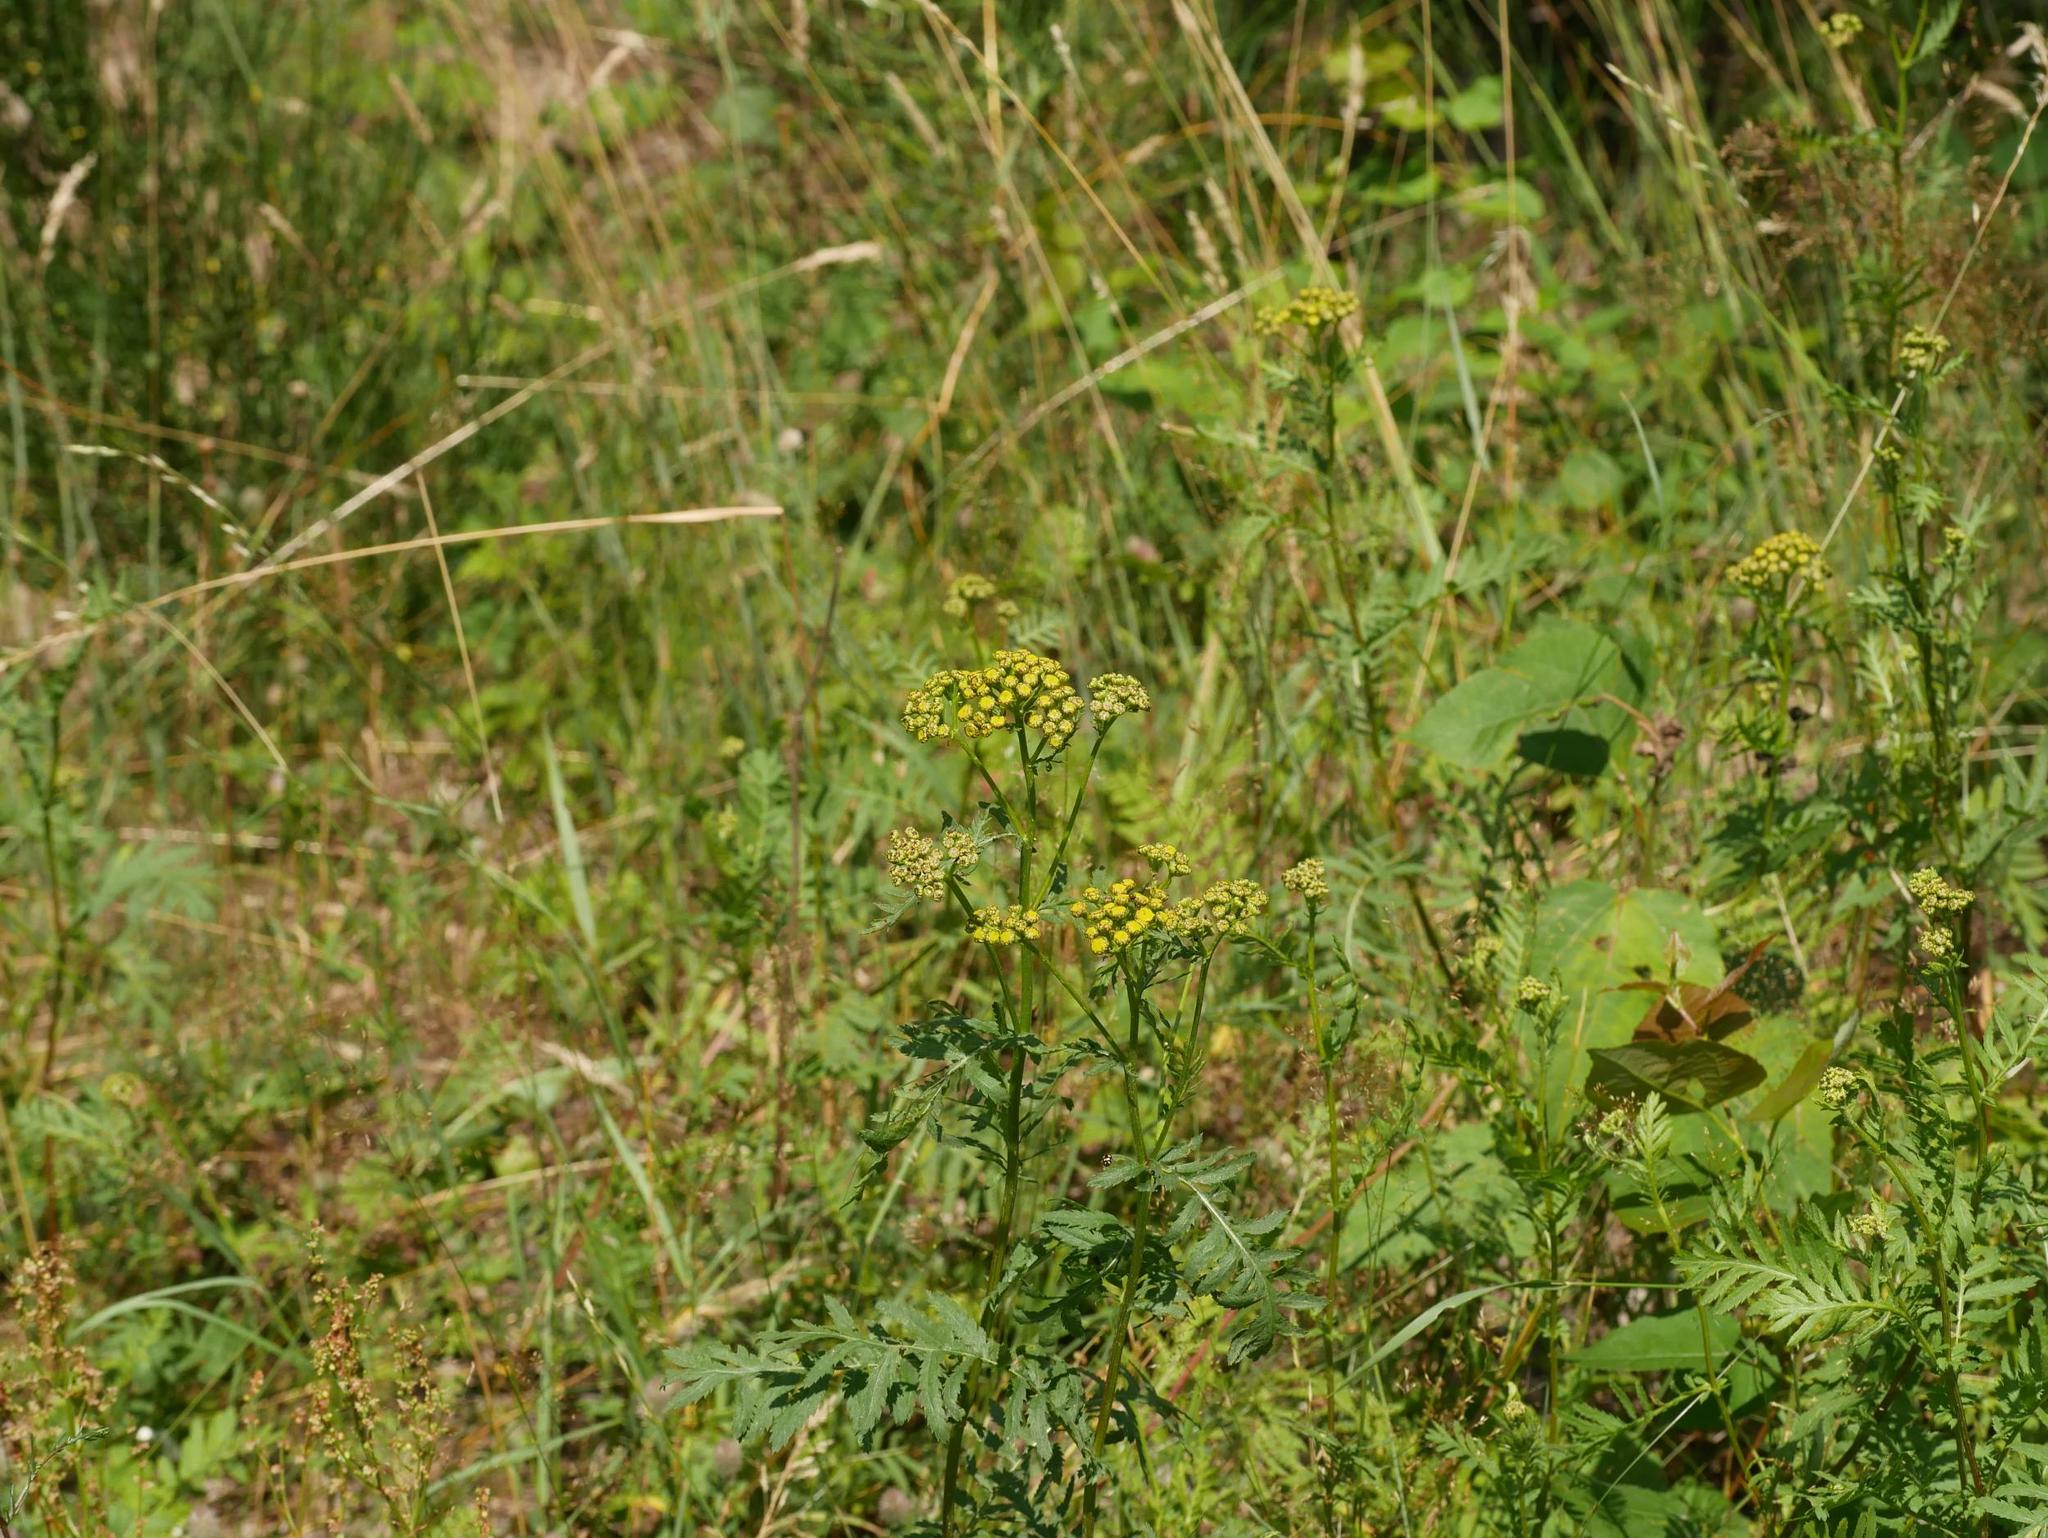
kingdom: Plantae
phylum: Tracheophyta
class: Magnoliopsida
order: Asterales
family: Asteraceae
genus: Tanacetum
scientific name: Tanacetum vulgare
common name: Common tansy
